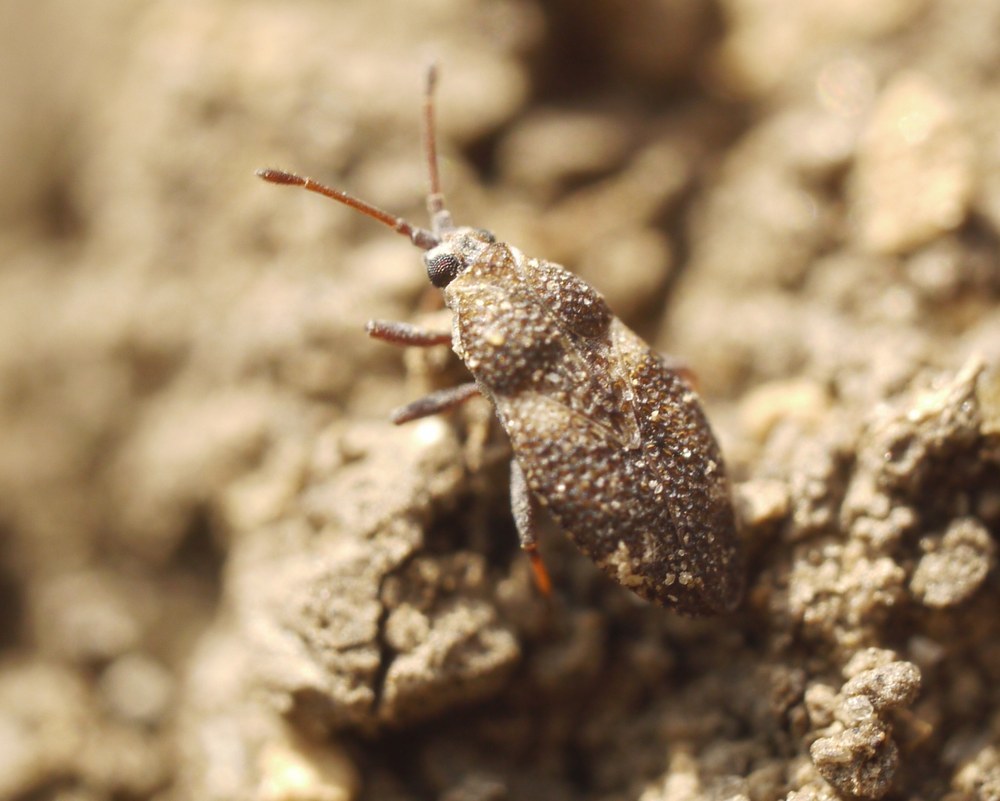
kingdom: Animalia
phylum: Arthropoda
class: Insecta
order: Hemiptera
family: Tingidae
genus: Onchochila
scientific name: Onchochila simplex
